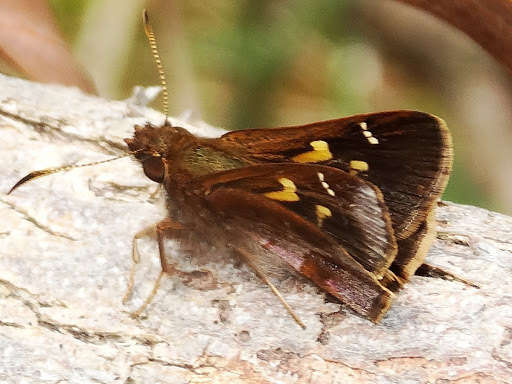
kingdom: Animalia
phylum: Arthropoda
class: Insecta
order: Lepidoptera
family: Hesperiidae
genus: Toxidia
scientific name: Toxidia doubledayi
